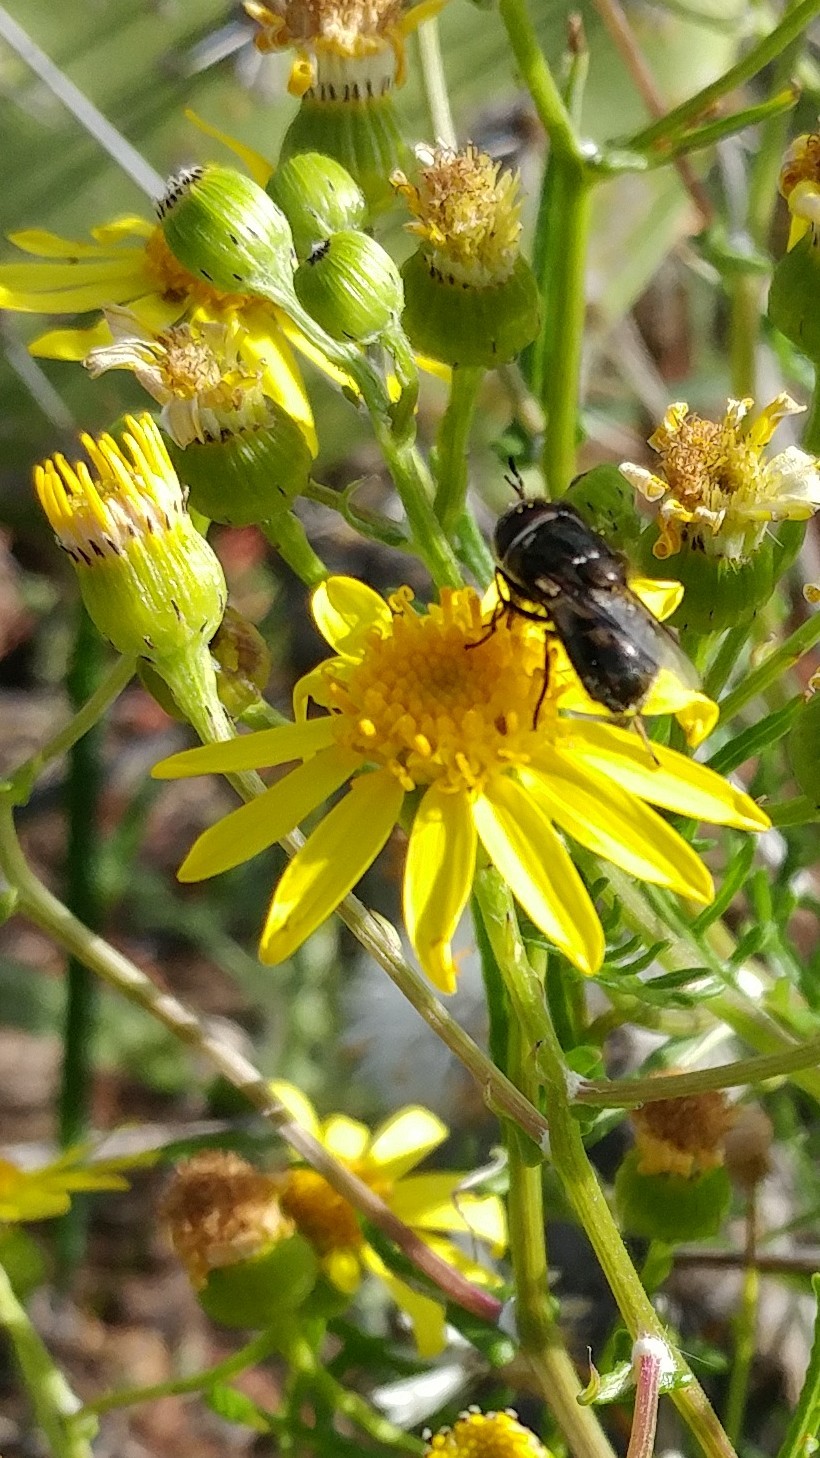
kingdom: Animalia
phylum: Arthropoda
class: Insecta
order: Diptera
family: Syrphidae
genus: Copestylum
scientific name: Copestylum
